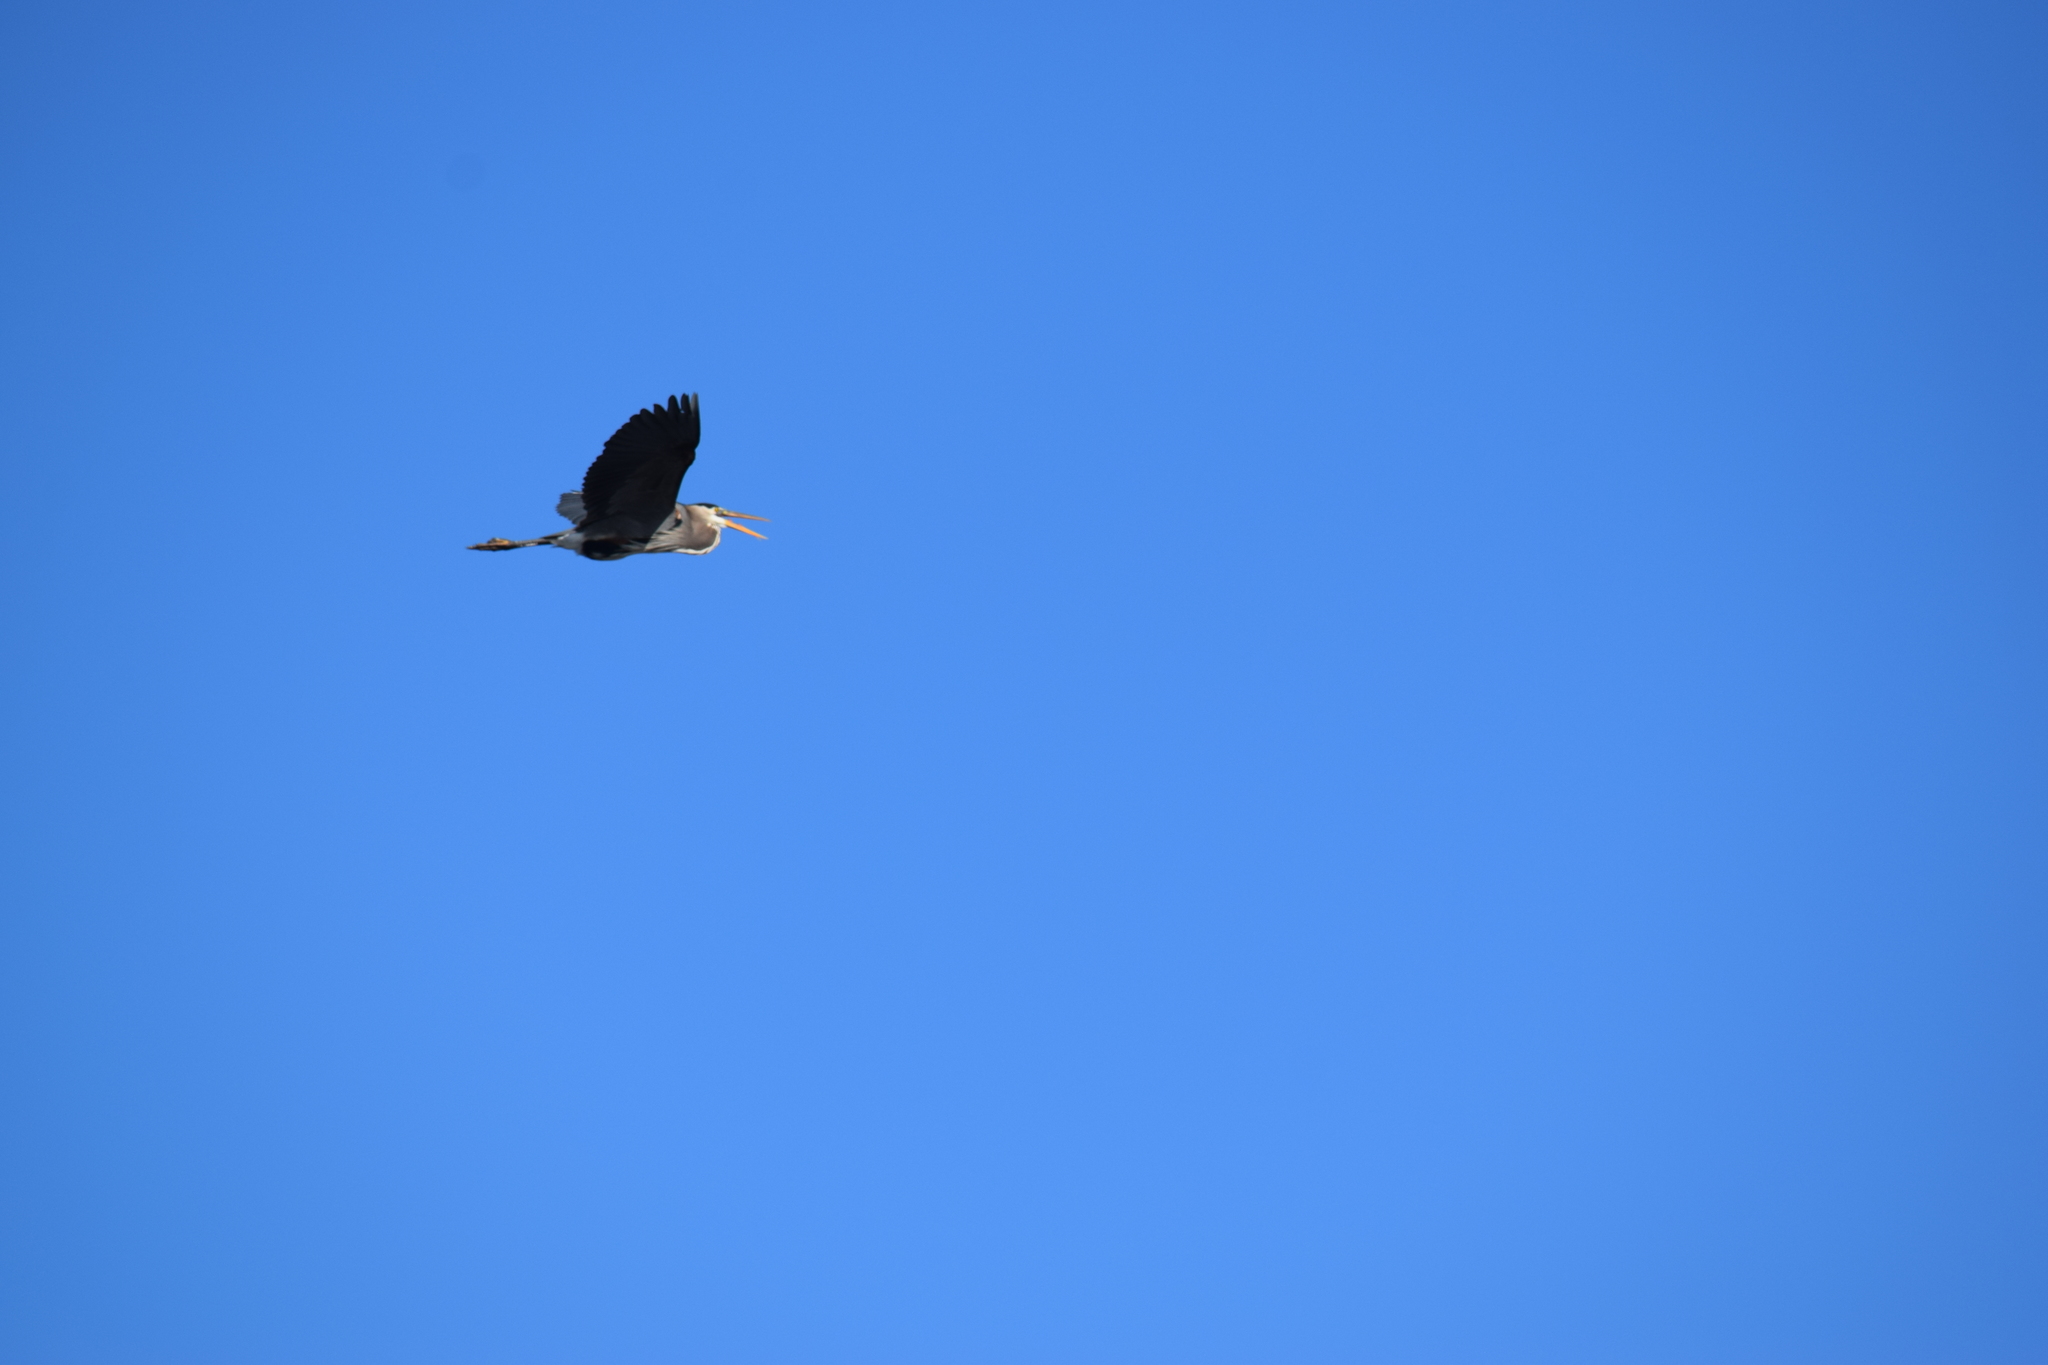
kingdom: Animalia
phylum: Chordata
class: Aves
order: Pelecaniformes
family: Ardeidae
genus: Ardea
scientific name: Ardea herodias
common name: Great blue heron
